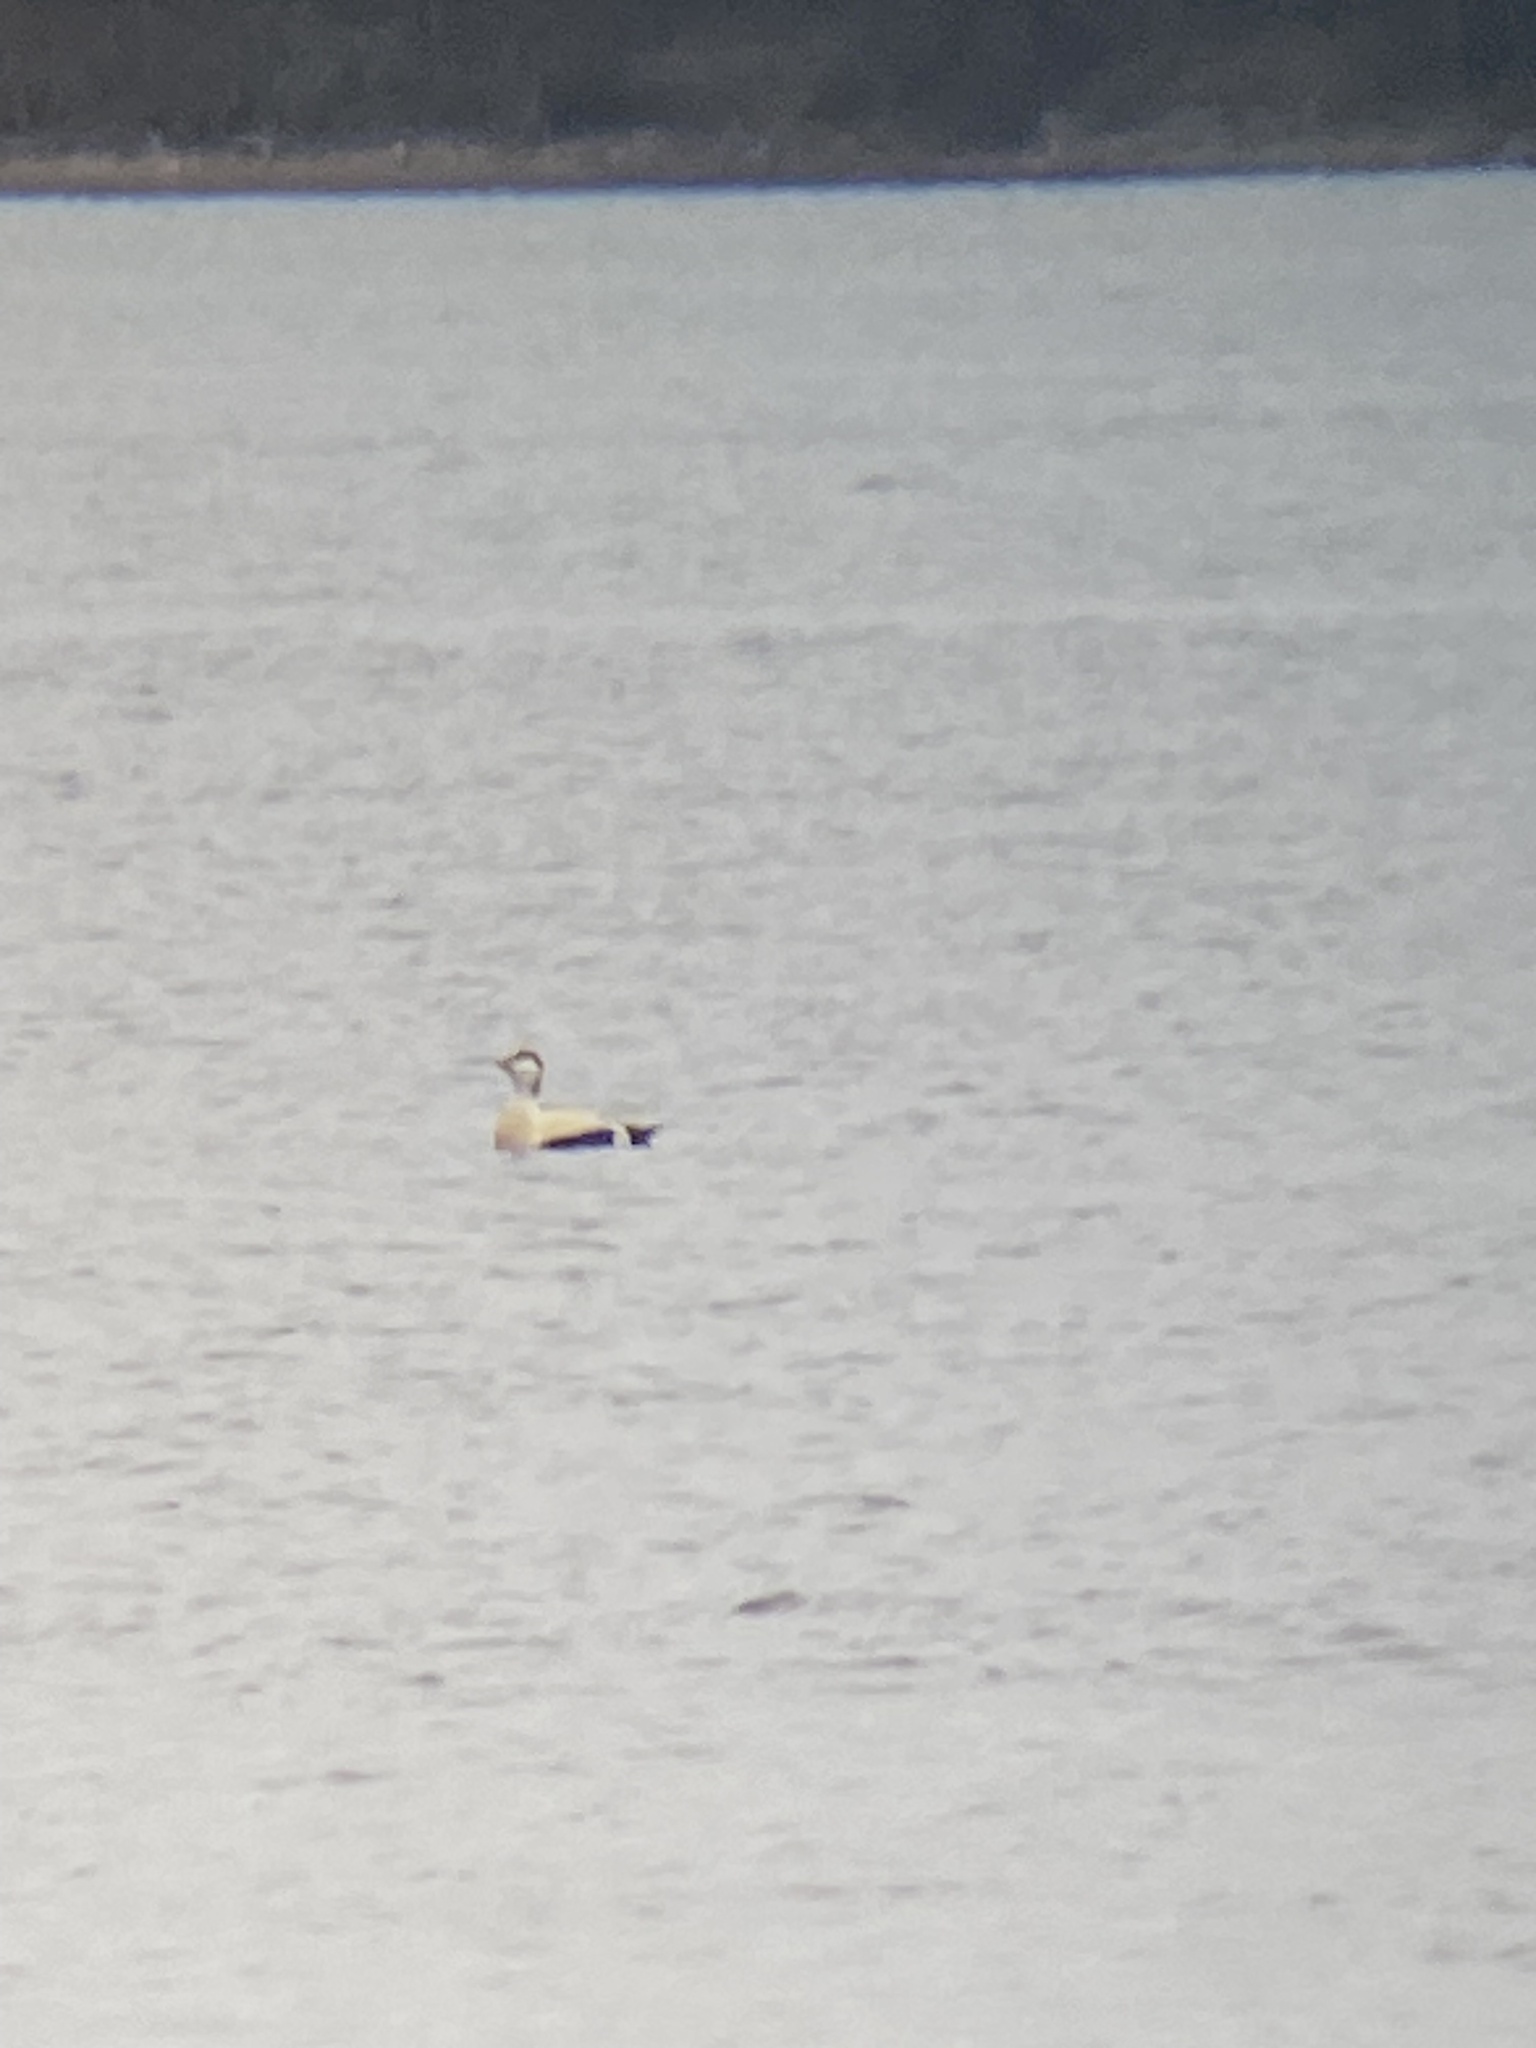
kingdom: Animalia
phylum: Chordata
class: Aves
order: Anseriformes
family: Anatidae
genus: Somateria
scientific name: Somateria mollissima
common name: Common eider
